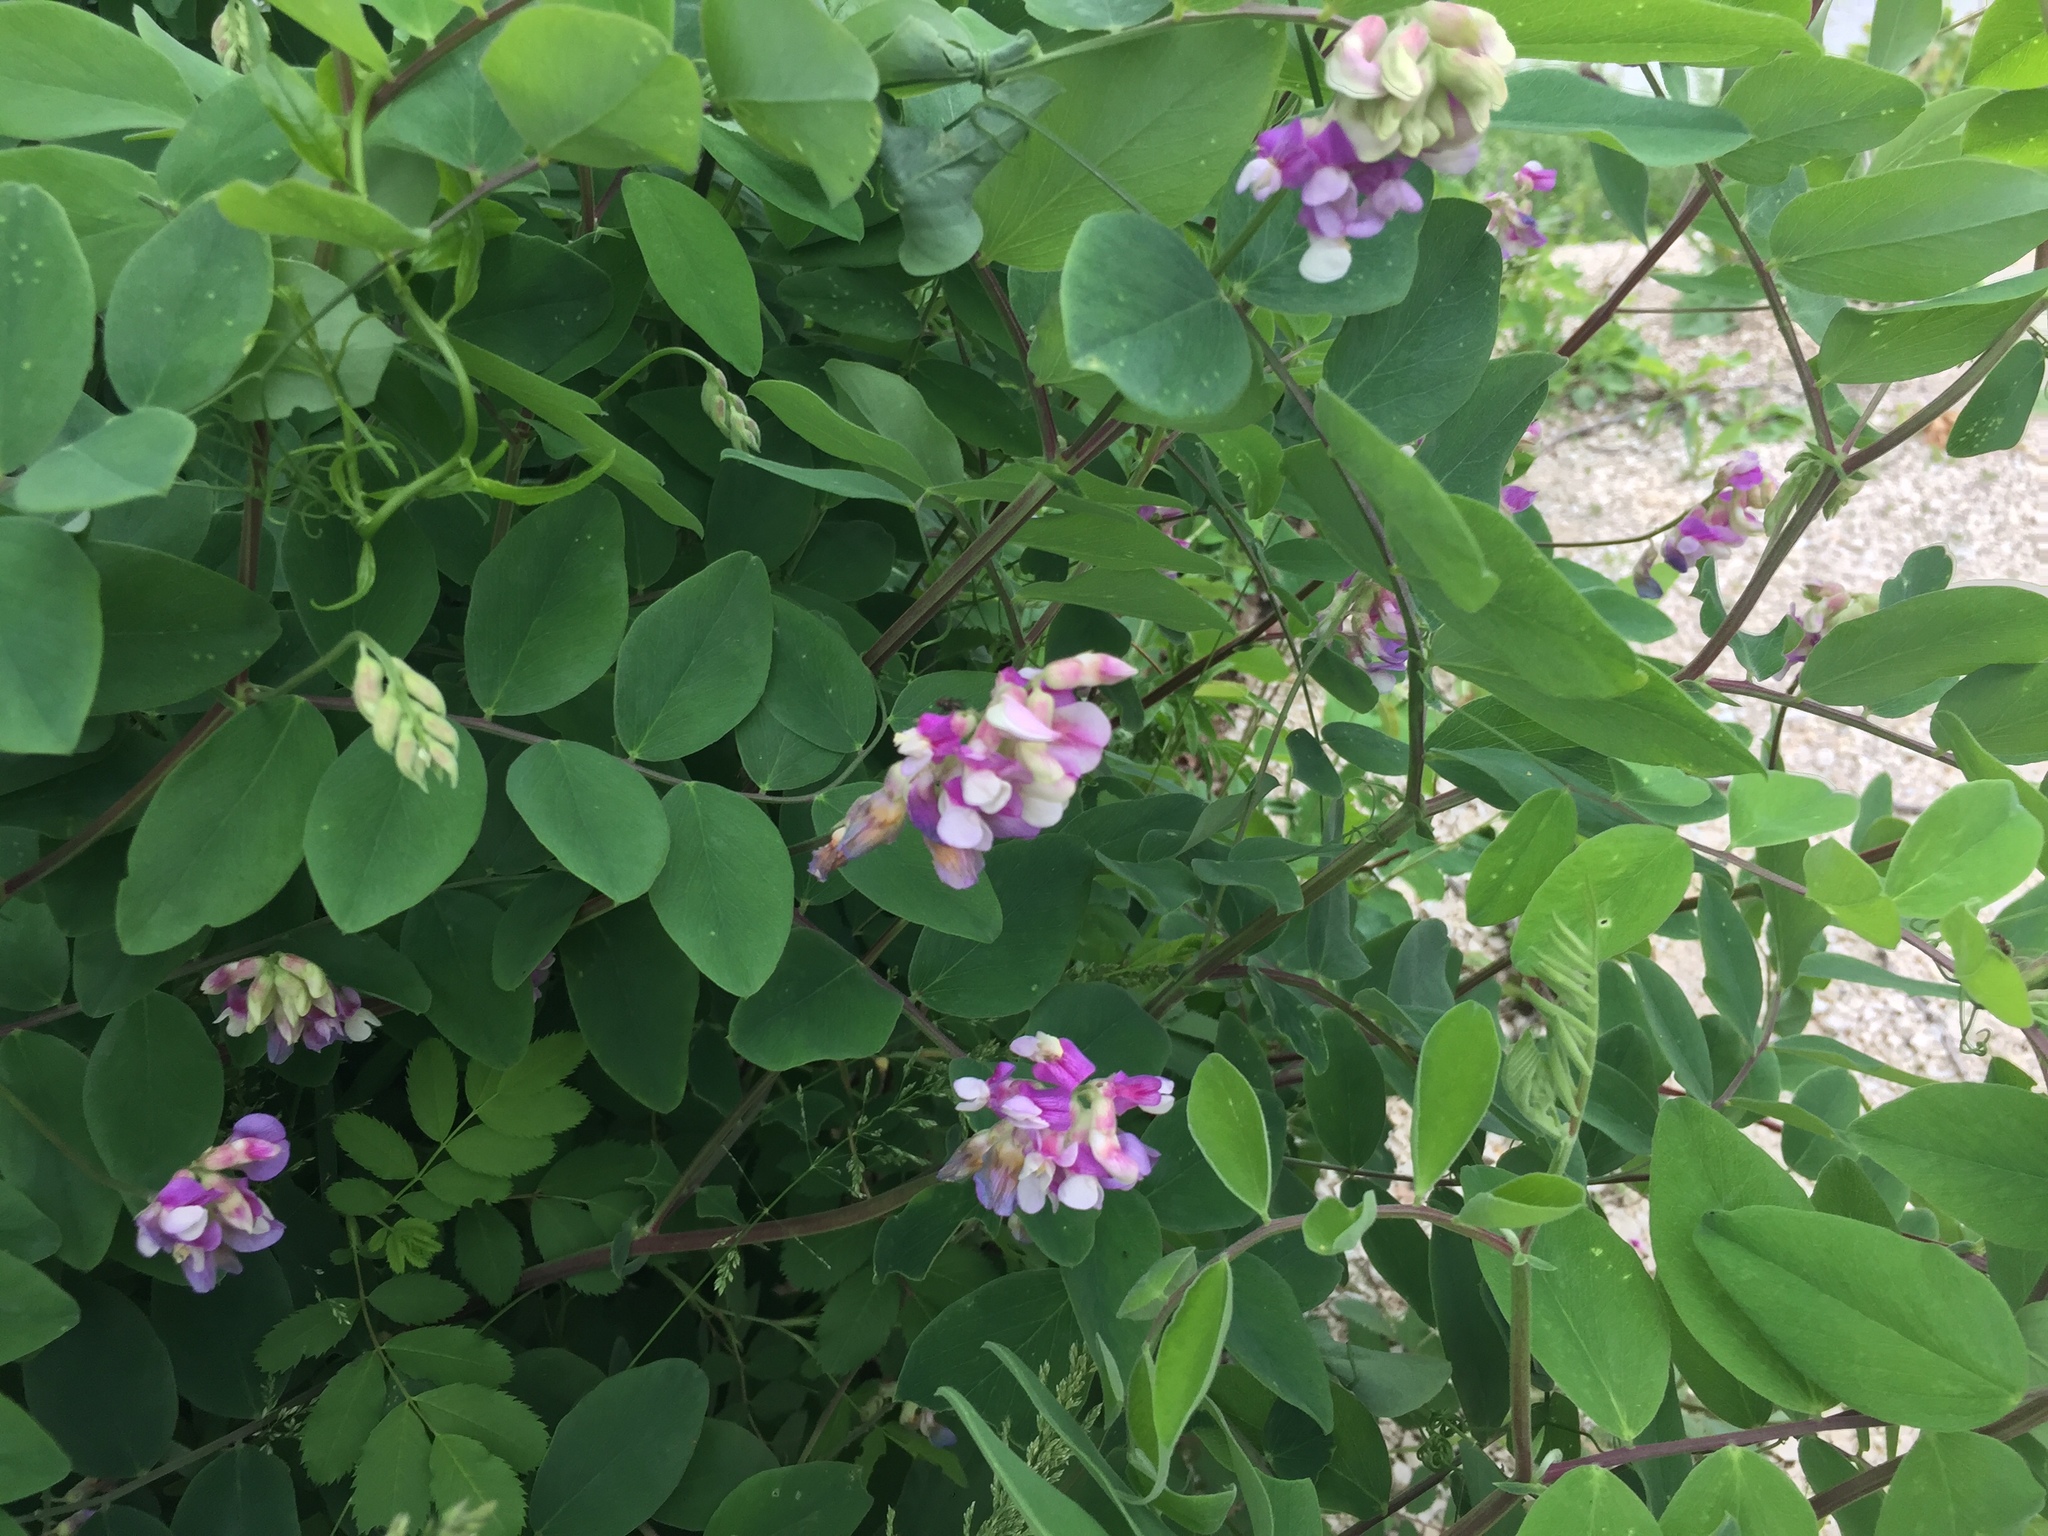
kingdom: Plantae
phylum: Tracheophyta
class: Magnoliopsida
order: Fabales
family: Fabaceae
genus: Lathyrus
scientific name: Lathyrus venosus
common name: Forest-pea
